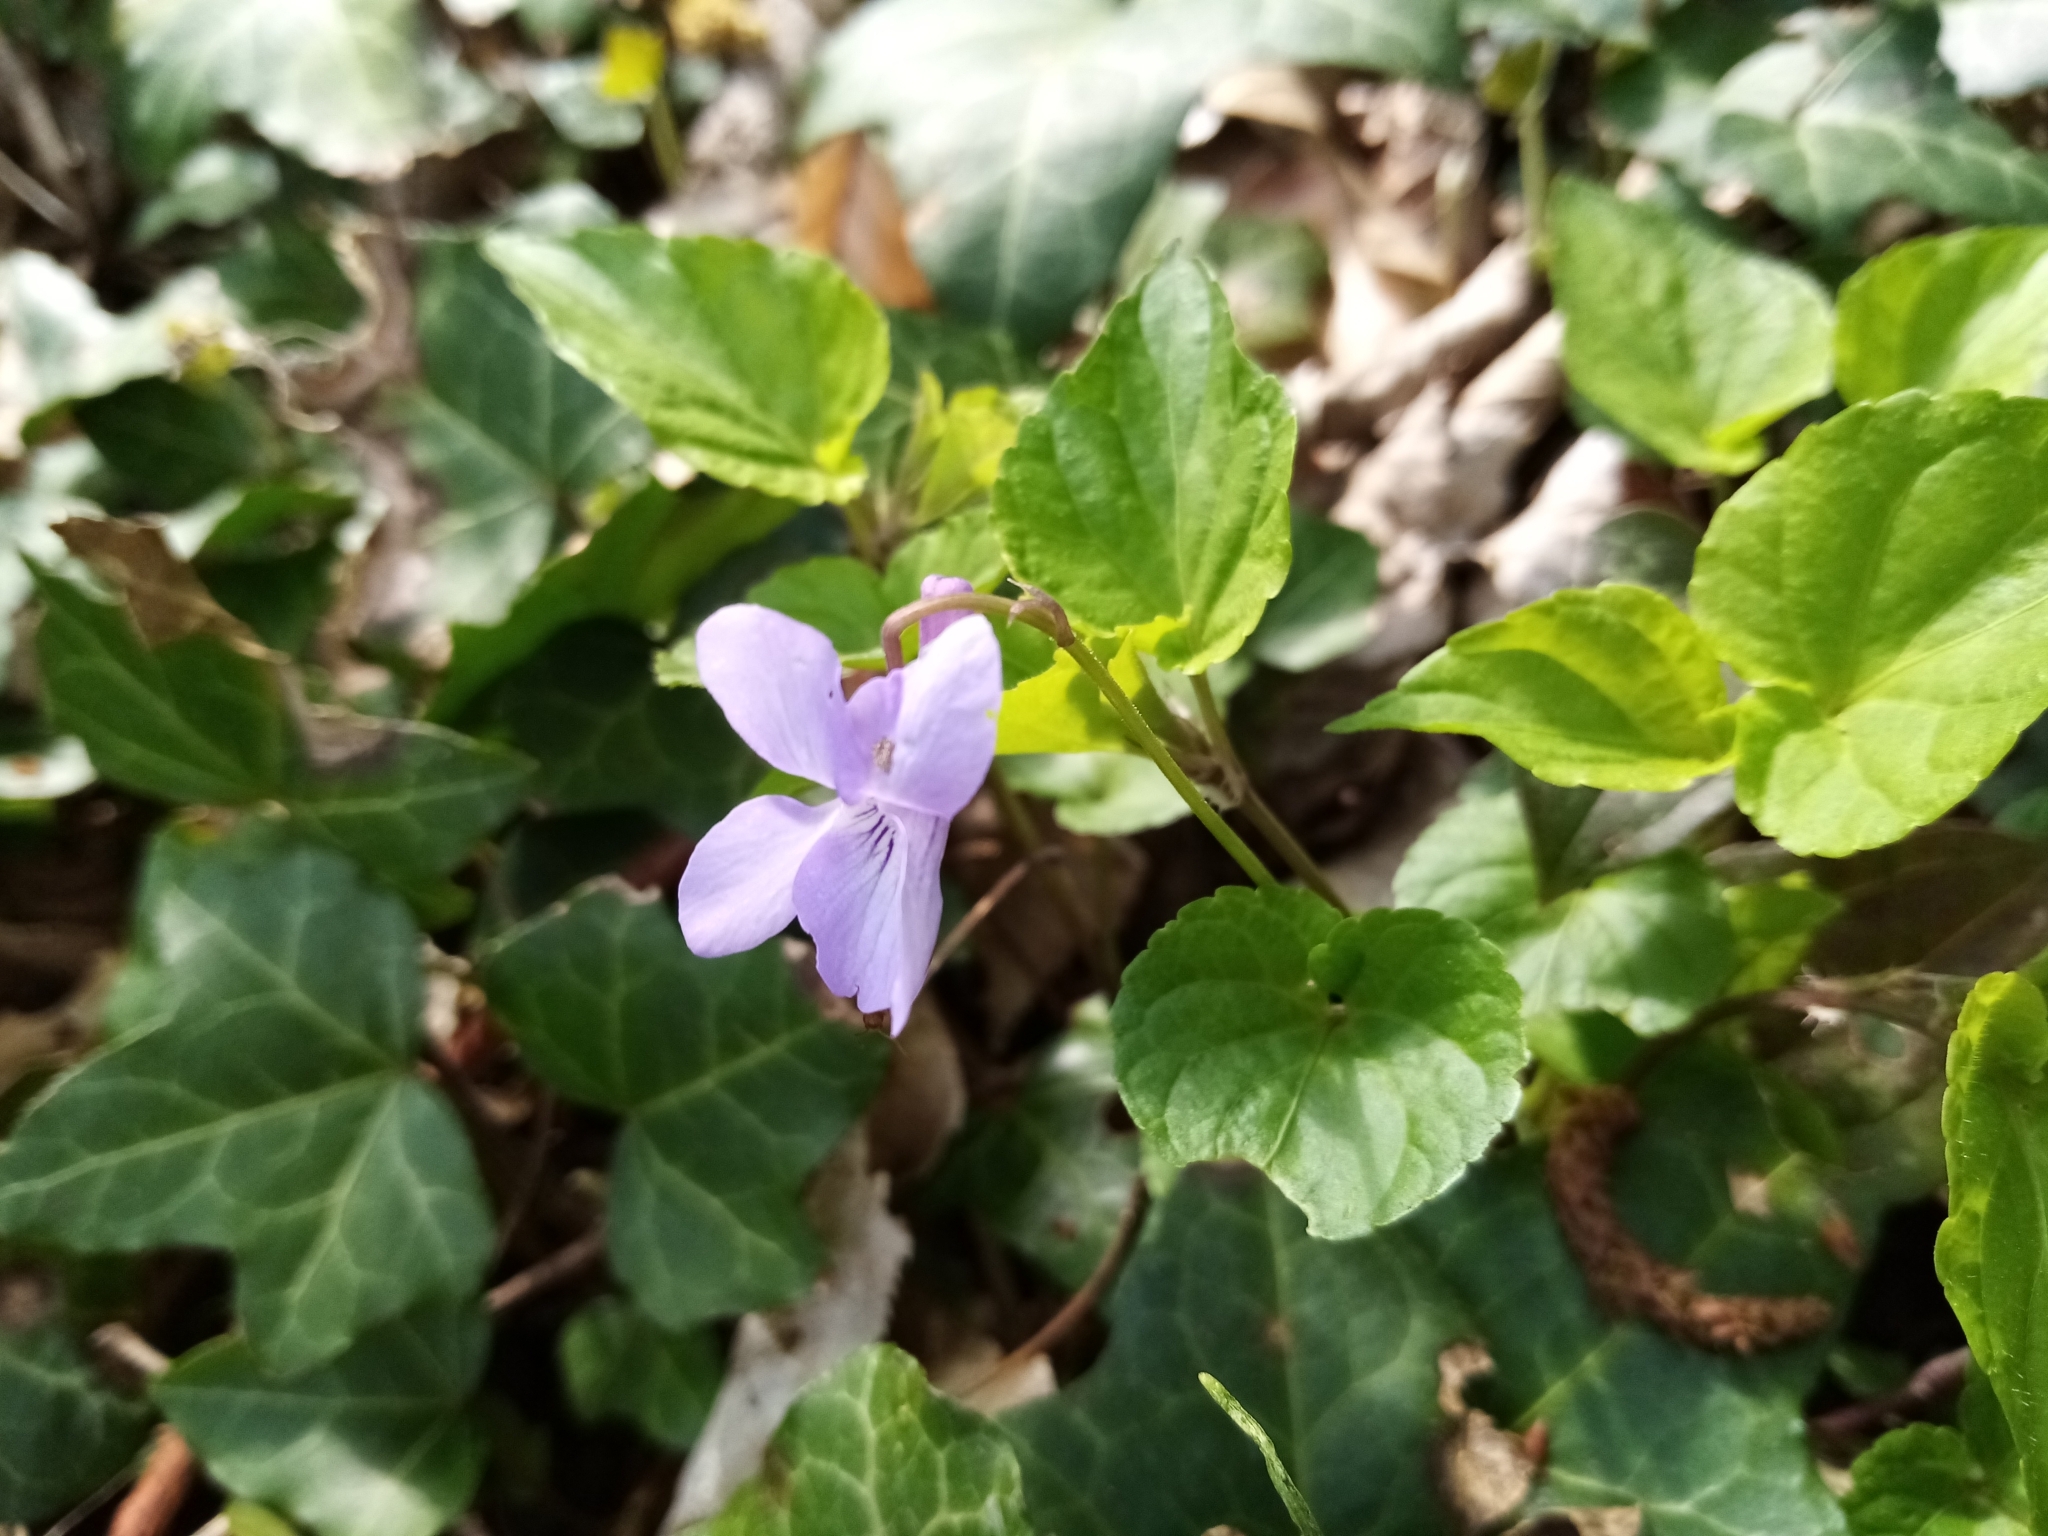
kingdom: Plantae
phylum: Tracheophyta
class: Magnoliopsida
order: Malpighiales
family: Violaceae
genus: Viola
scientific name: Viola reichenbachiana
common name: Early dog-violet
